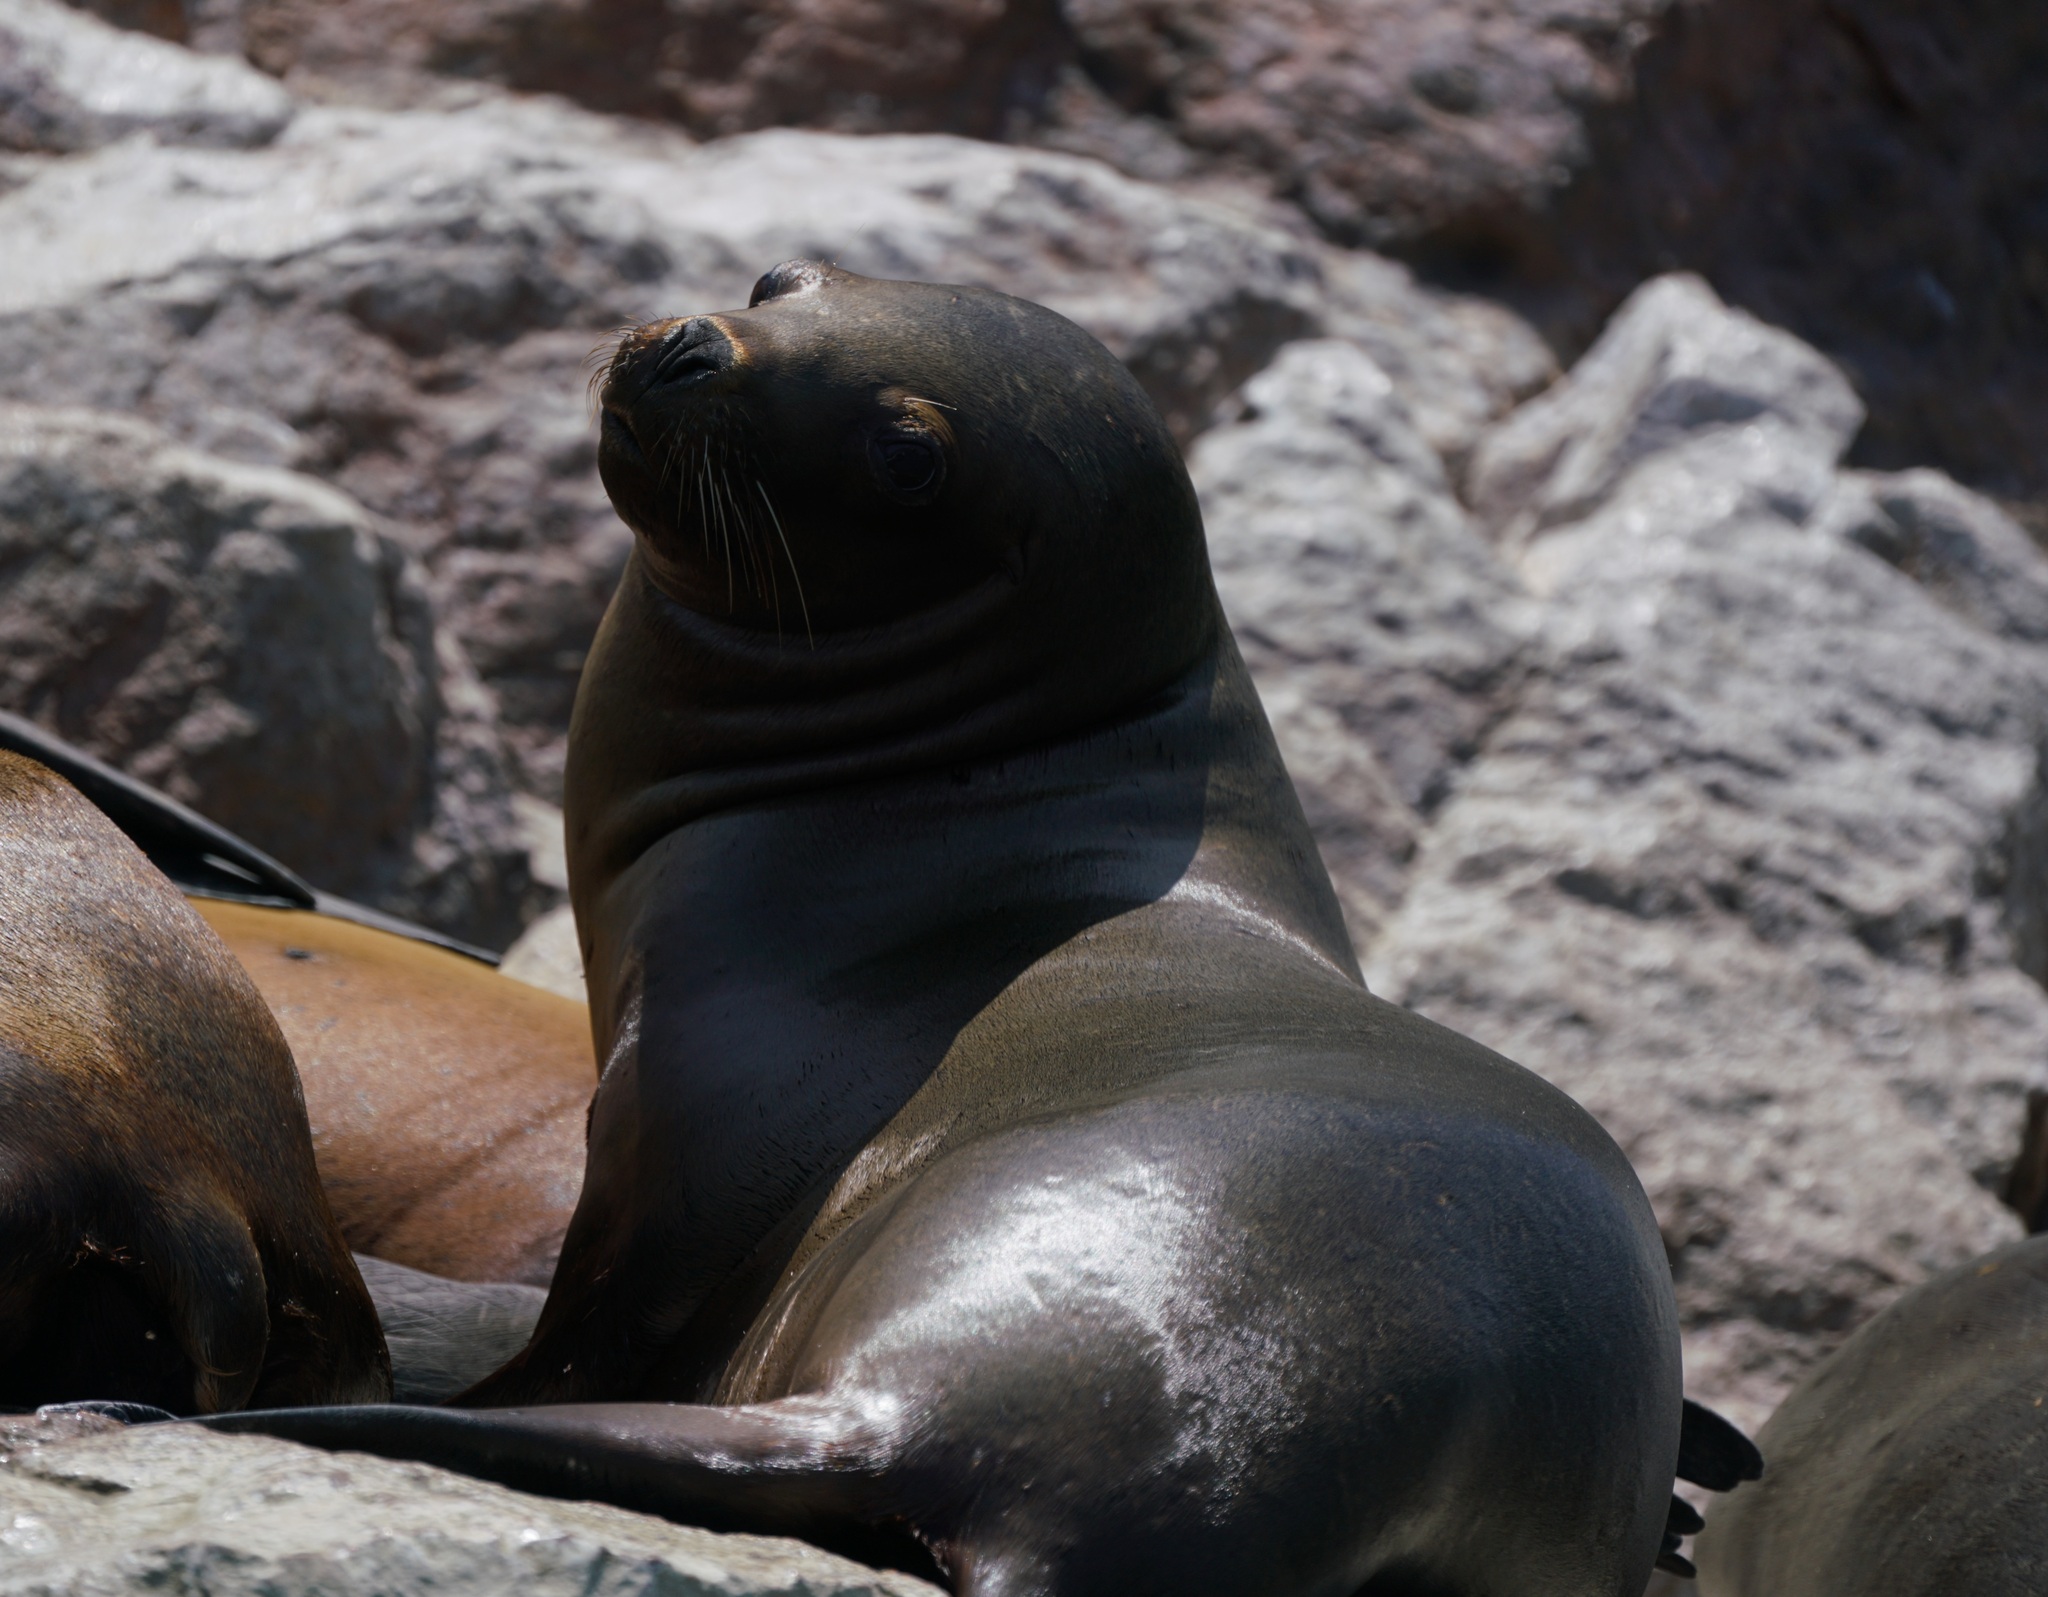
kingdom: Animalia
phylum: Chordata
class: Mammalia
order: Carnivora
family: Otariidae
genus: Otaria
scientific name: Otaria byronia
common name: South american sea lion
